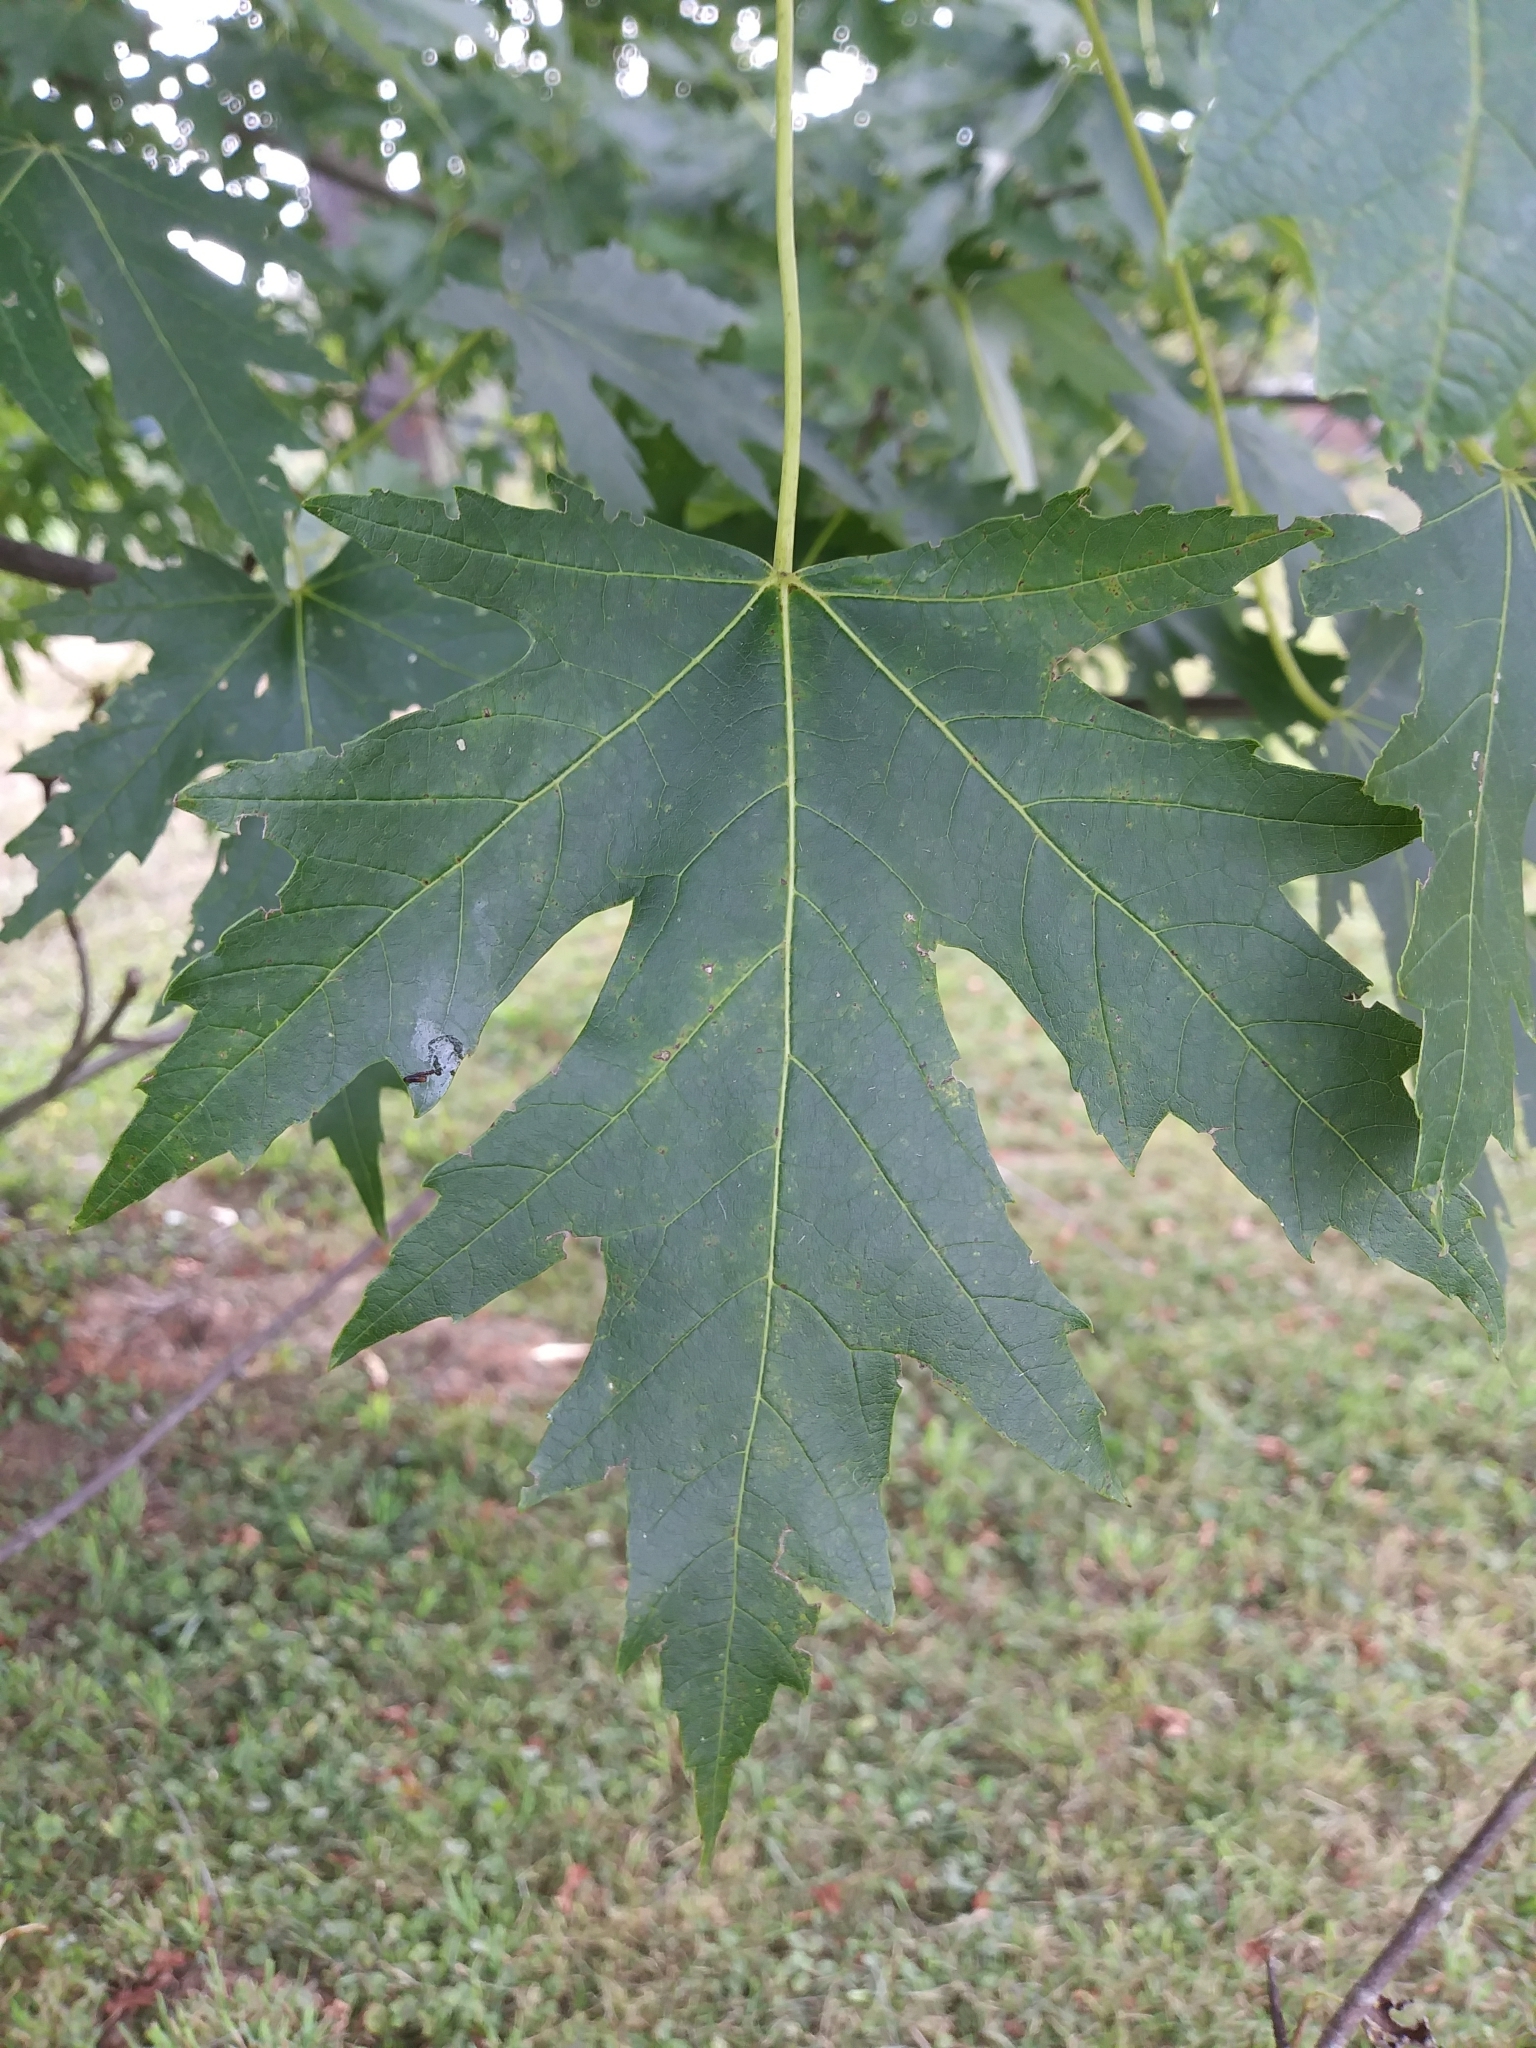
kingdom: Plantae
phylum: Tracheophyta
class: Magnoliopsida
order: Sapindales
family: Sapindaceae
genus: Acer
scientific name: Acer saccharinum
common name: Silver maple
